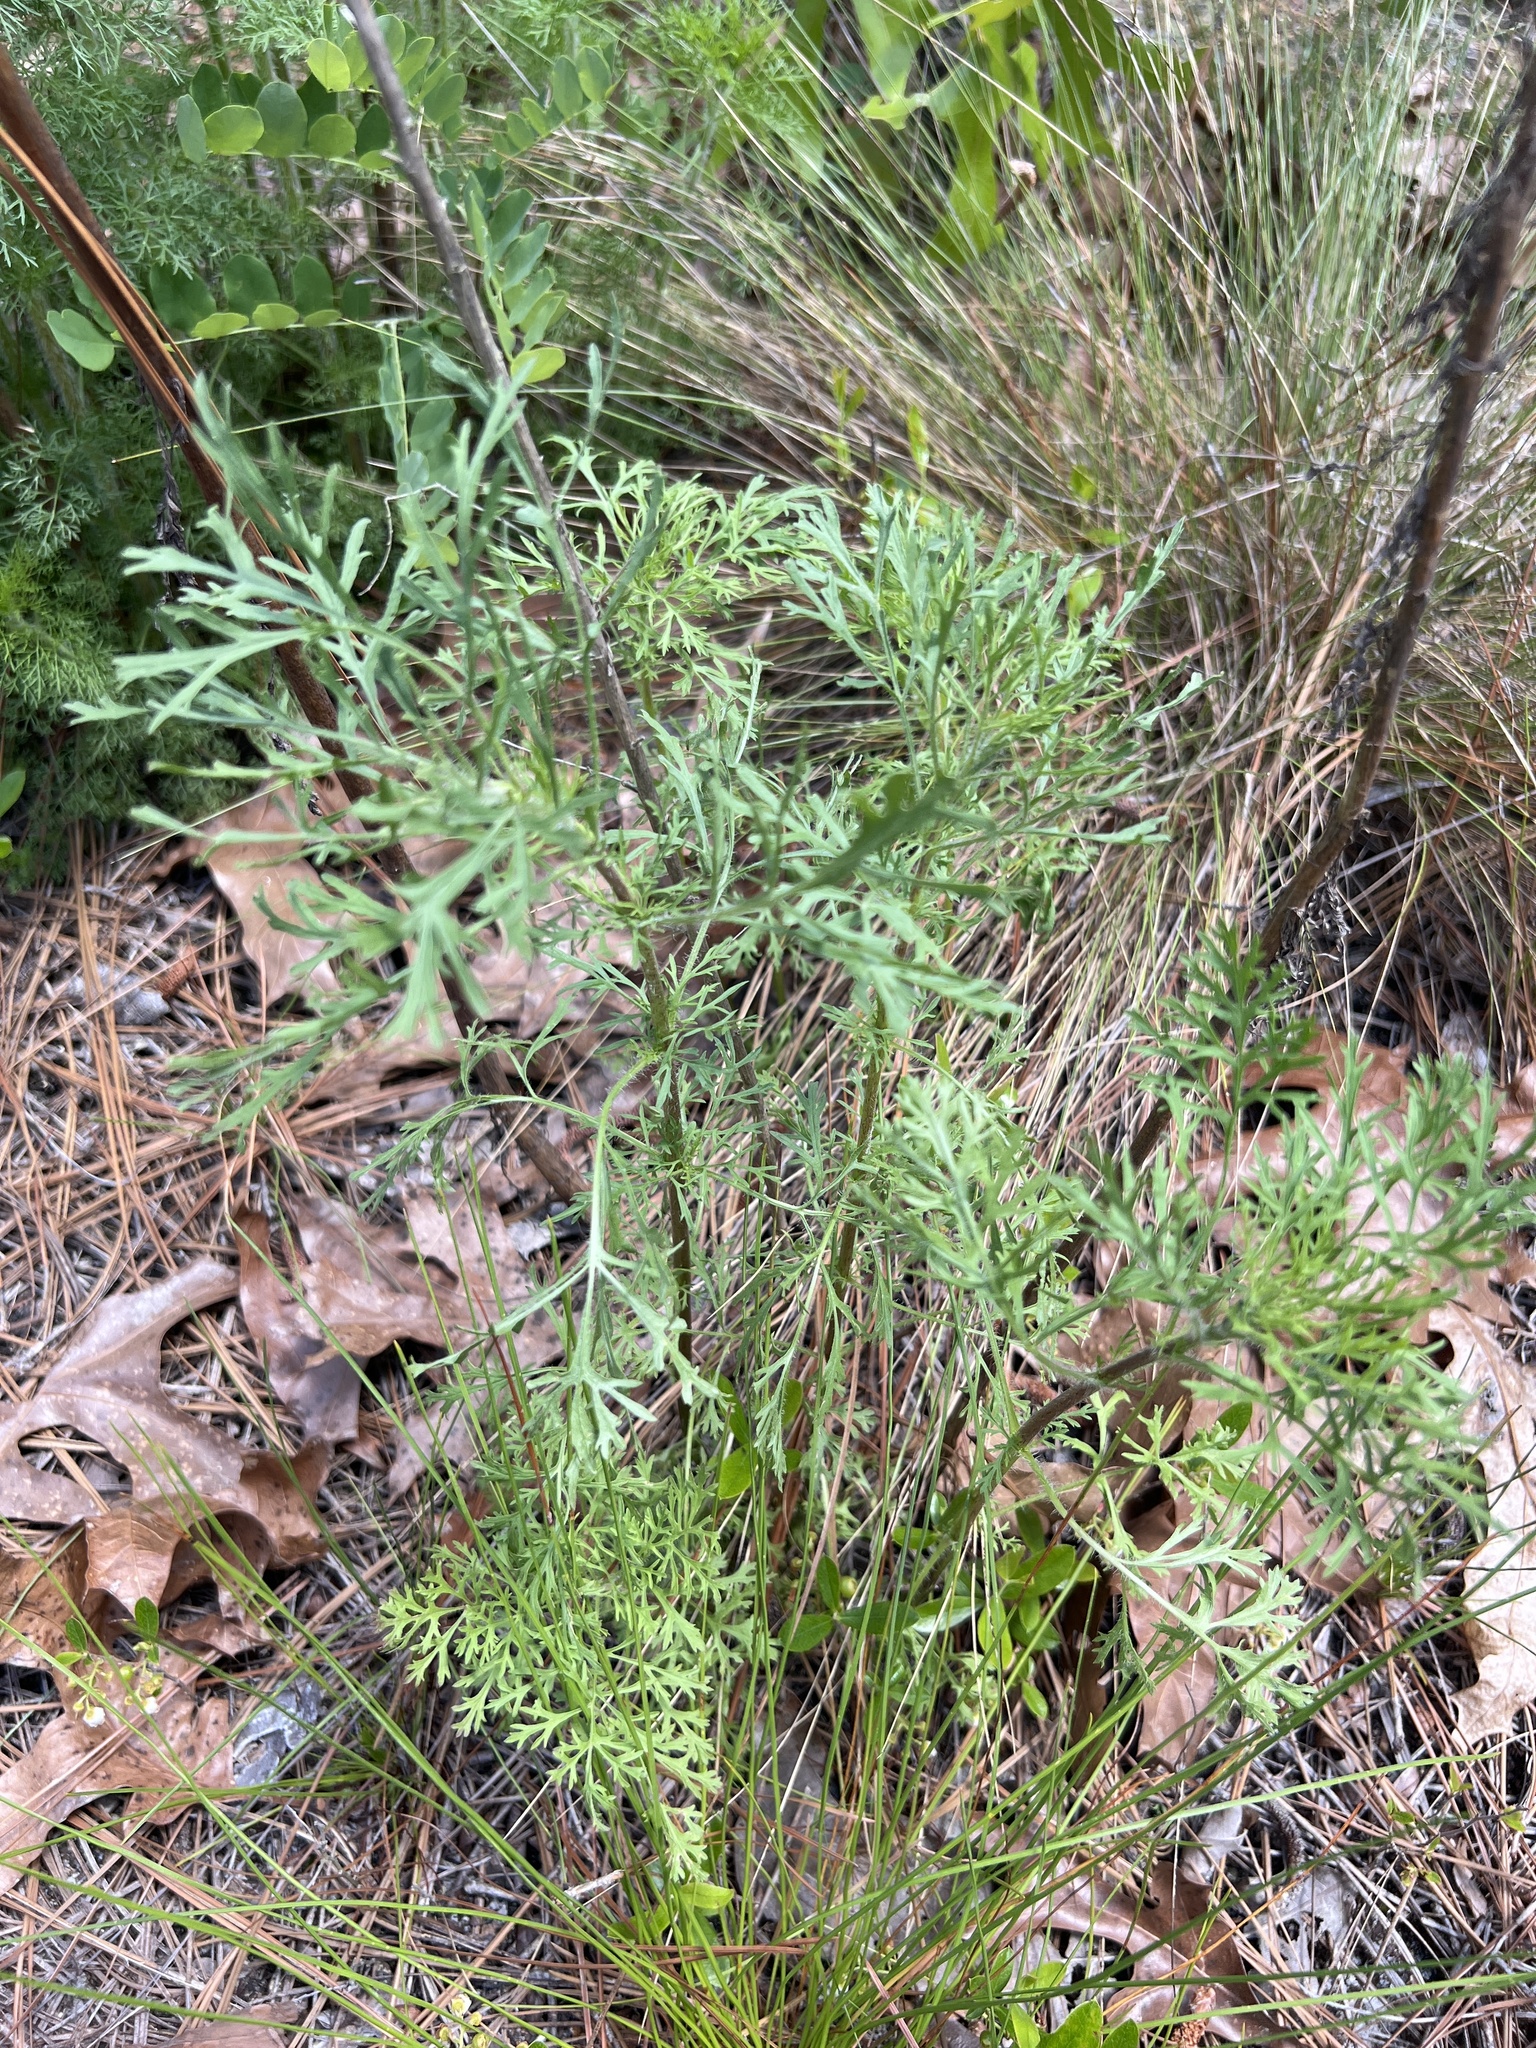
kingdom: Plantae
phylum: Tracheophyta
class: Magnoliopsida
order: Asterales
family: Asteraceae
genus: Eupatorium
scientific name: Eupatorium compositifolium
